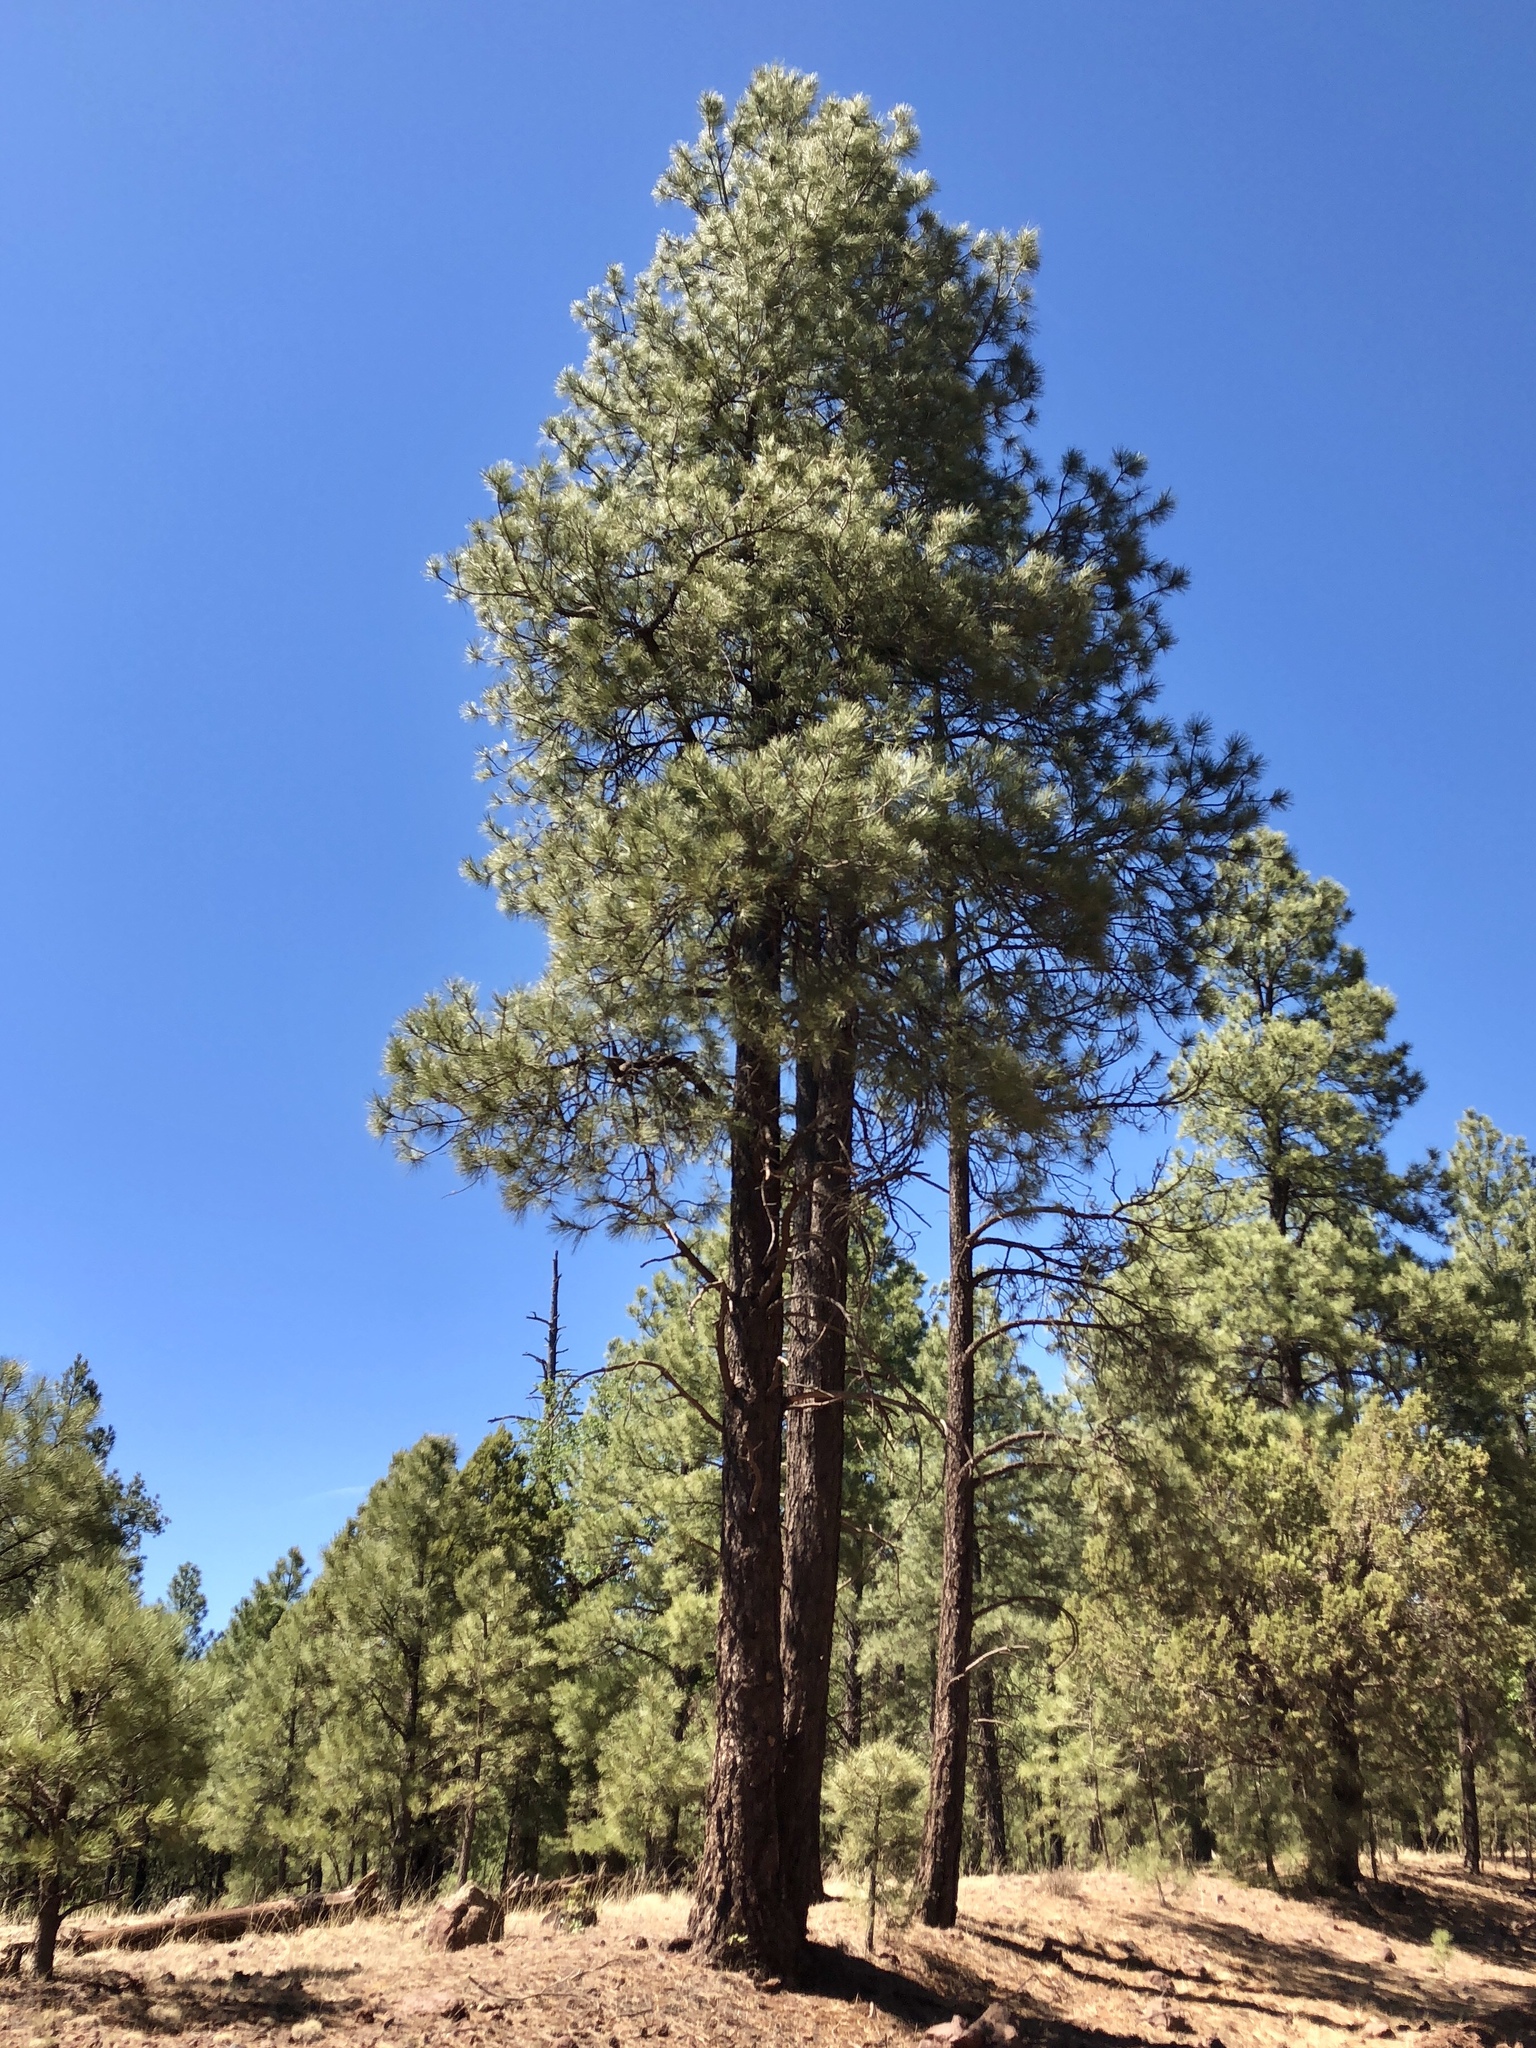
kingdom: Plantae
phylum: Tracheophyta
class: Pinopsida
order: Pinales
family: Pinaceae
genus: Pinus
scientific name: Pinus ponderosa
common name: Western yellow-pine
